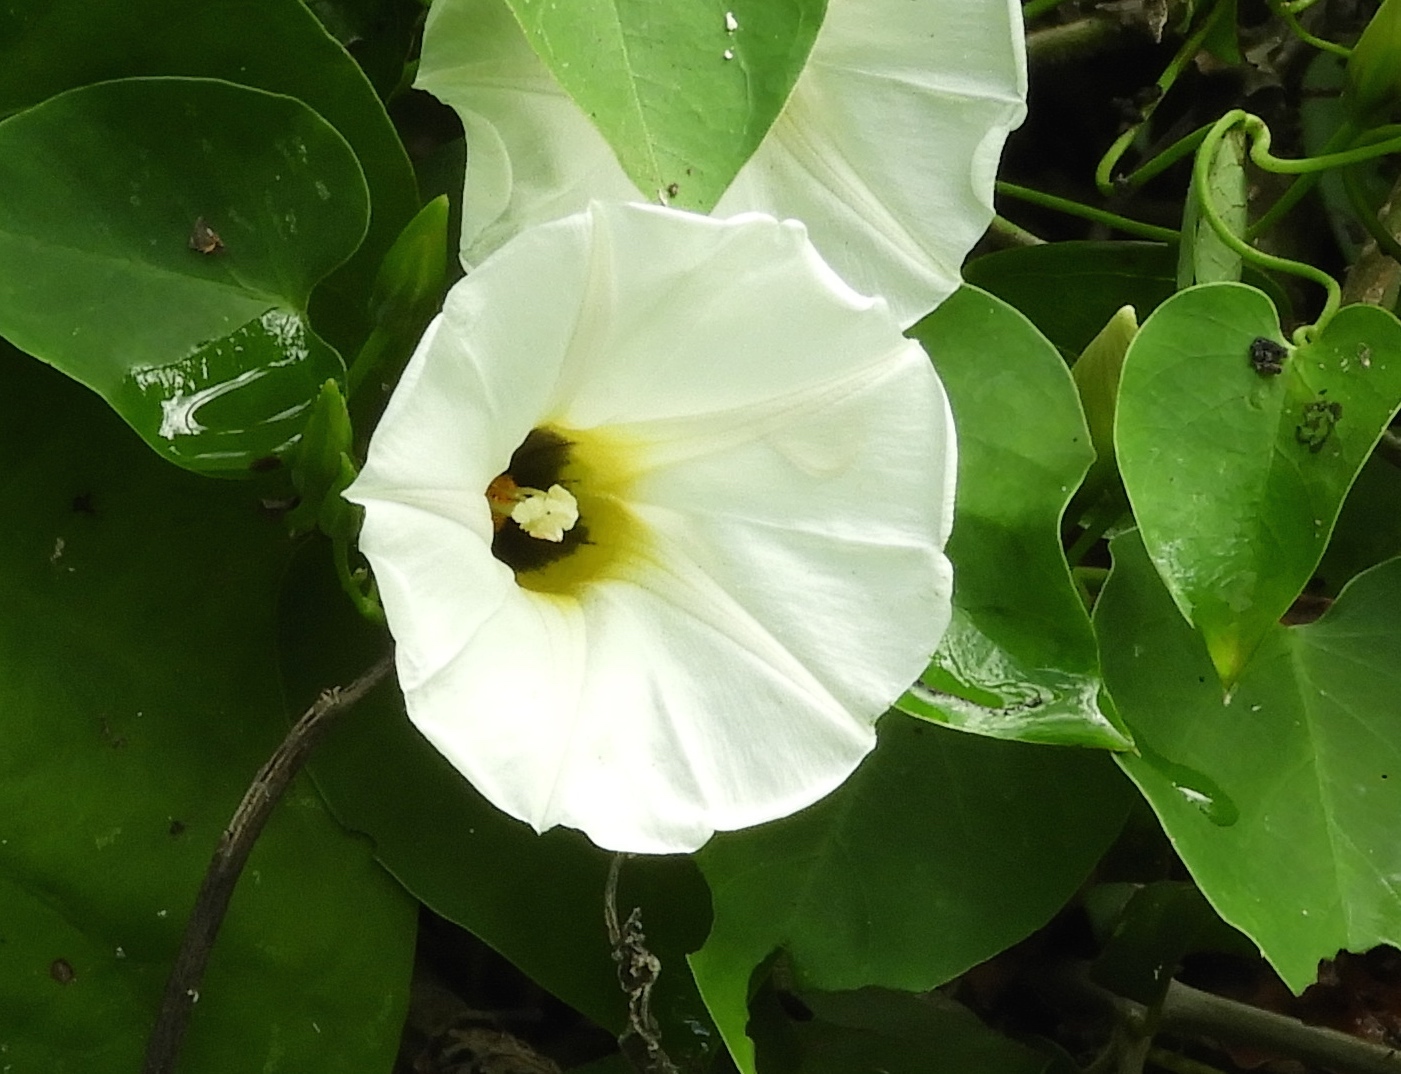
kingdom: Plantae
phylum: Tracheophyta
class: Magnoliopsida
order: Solanales
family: Convolvulaceae
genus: Ipomoea
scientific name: Ipomoea corymbosa
